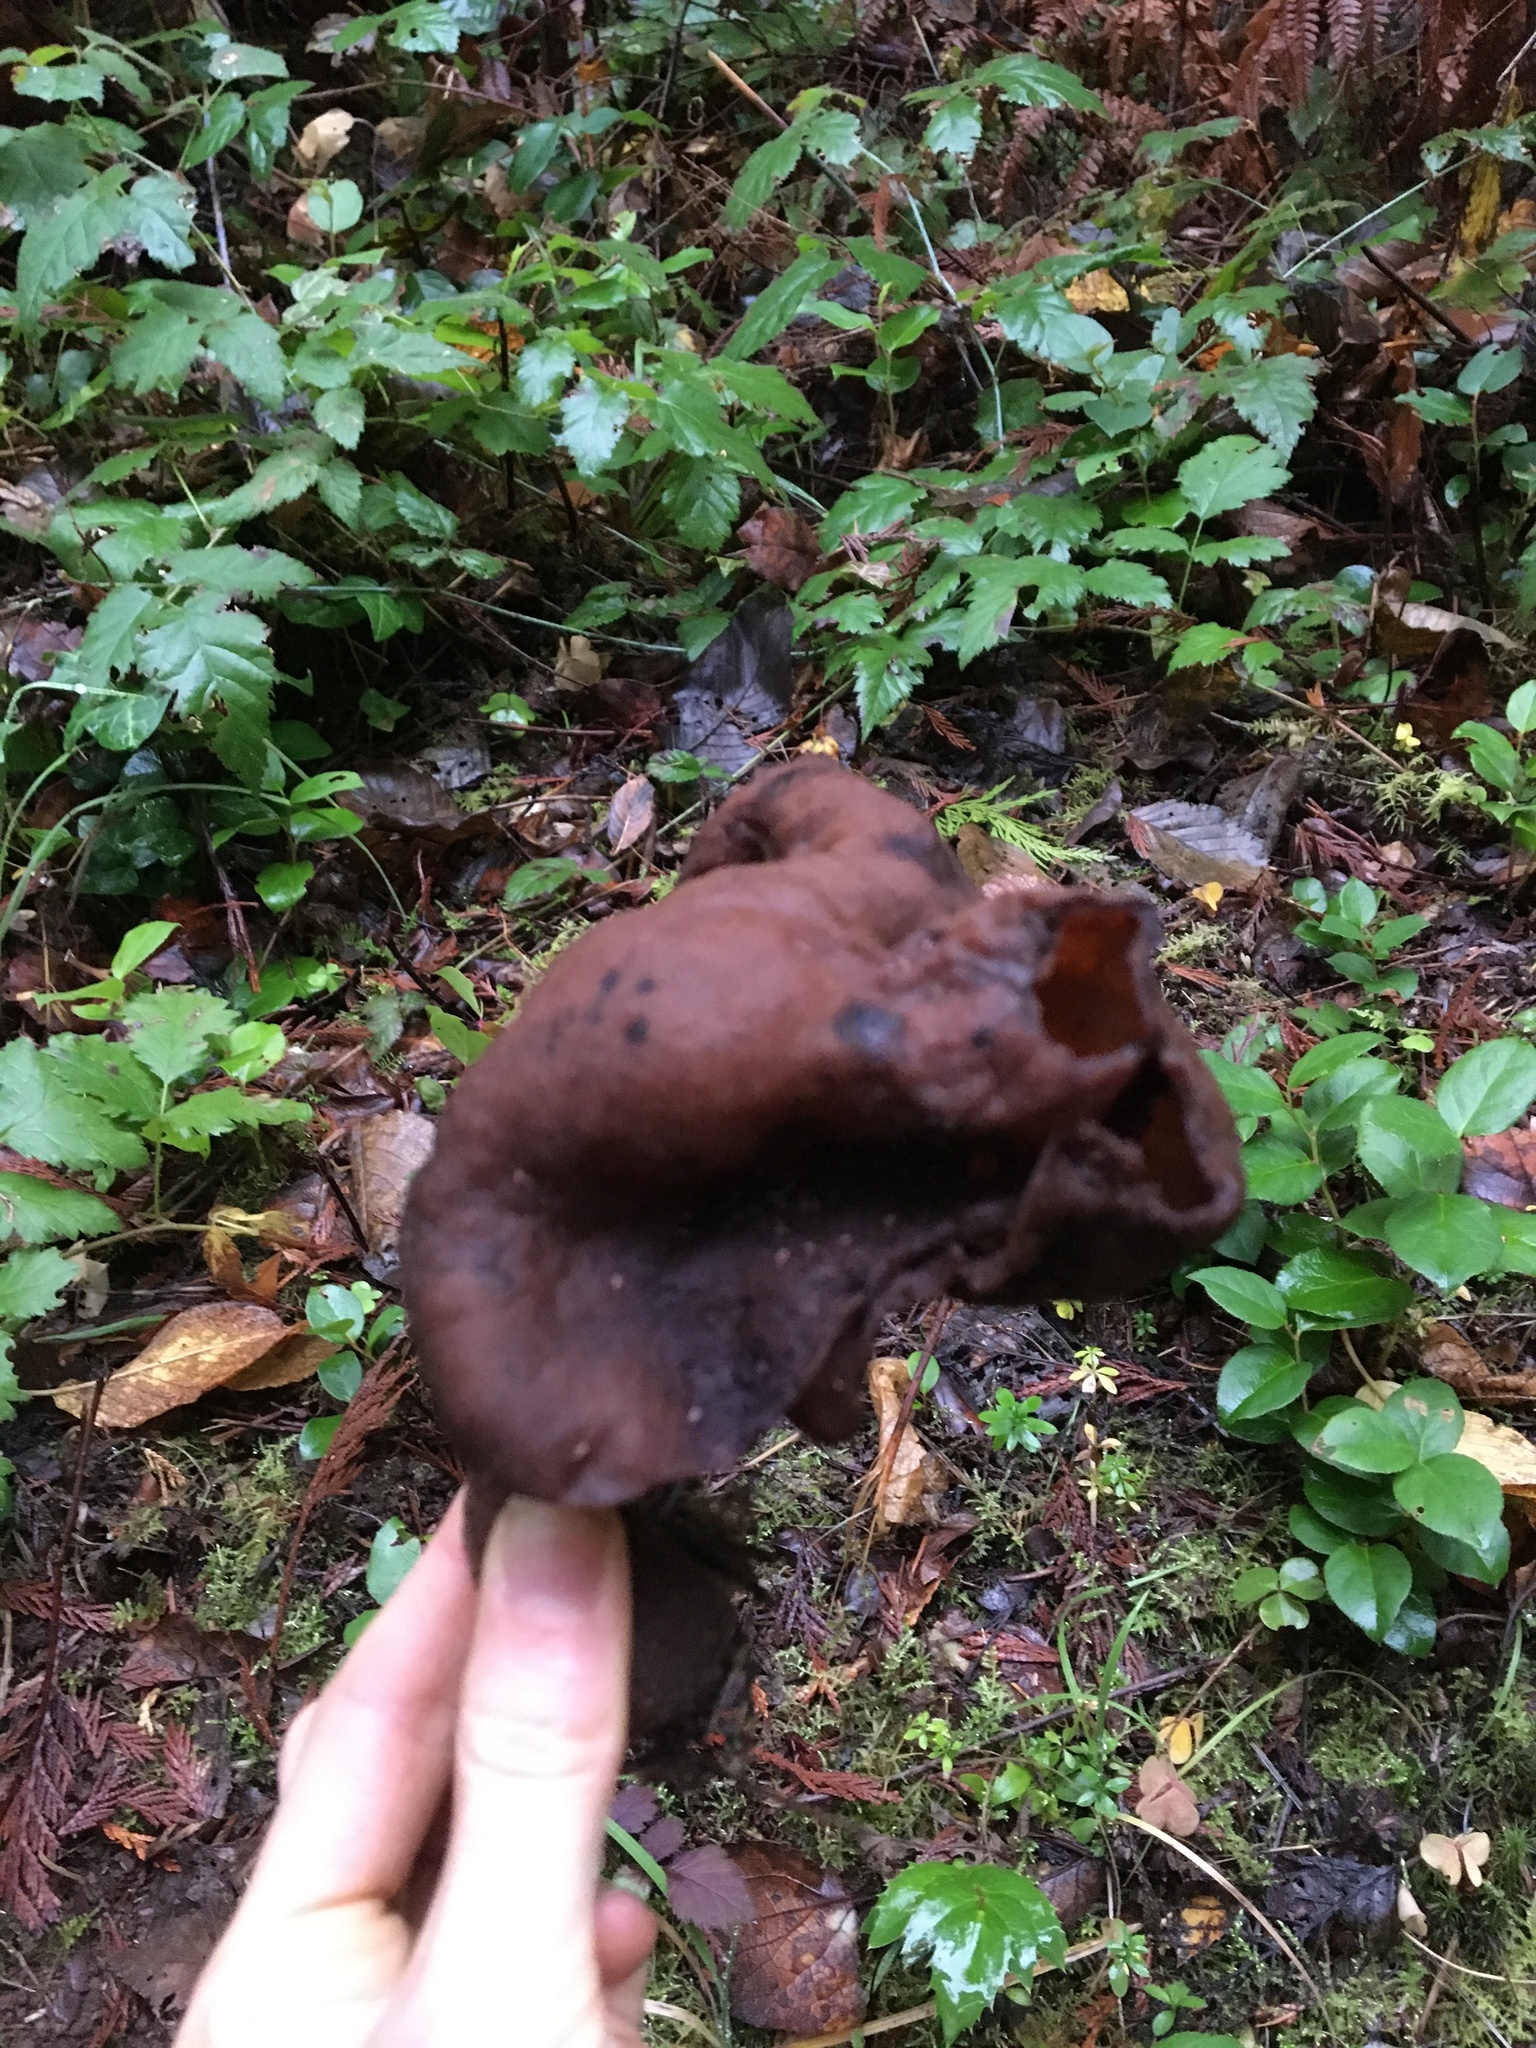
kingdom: Fungi
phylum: Ascomycota
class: Pezizomycetes
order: Pezizales
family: Discinaceae
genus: Gyromitra
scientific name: Gyromitra infula
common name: Pouched false morel
